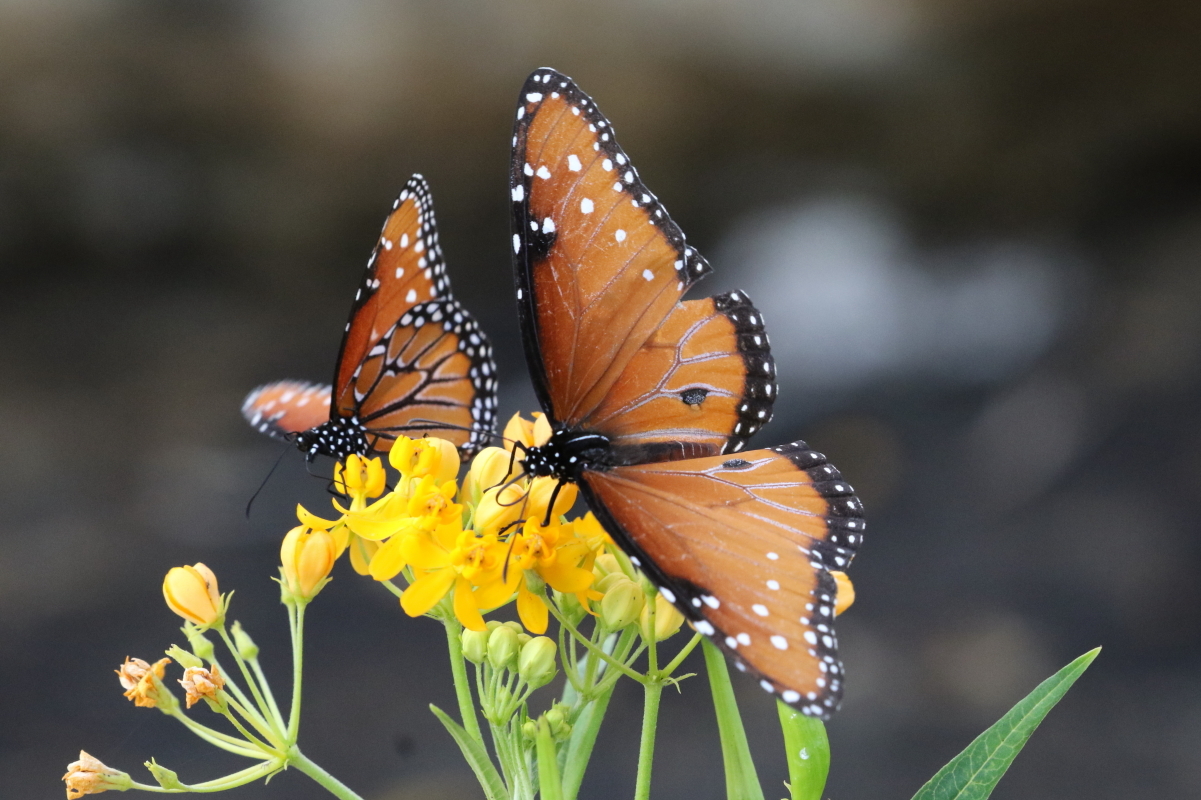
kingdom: Animalia
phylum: Arthropoda
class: Insecta
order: Lepidoptera
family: Nymphalidae
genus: Danaus
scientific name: Danaus gilippus
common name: Queen
